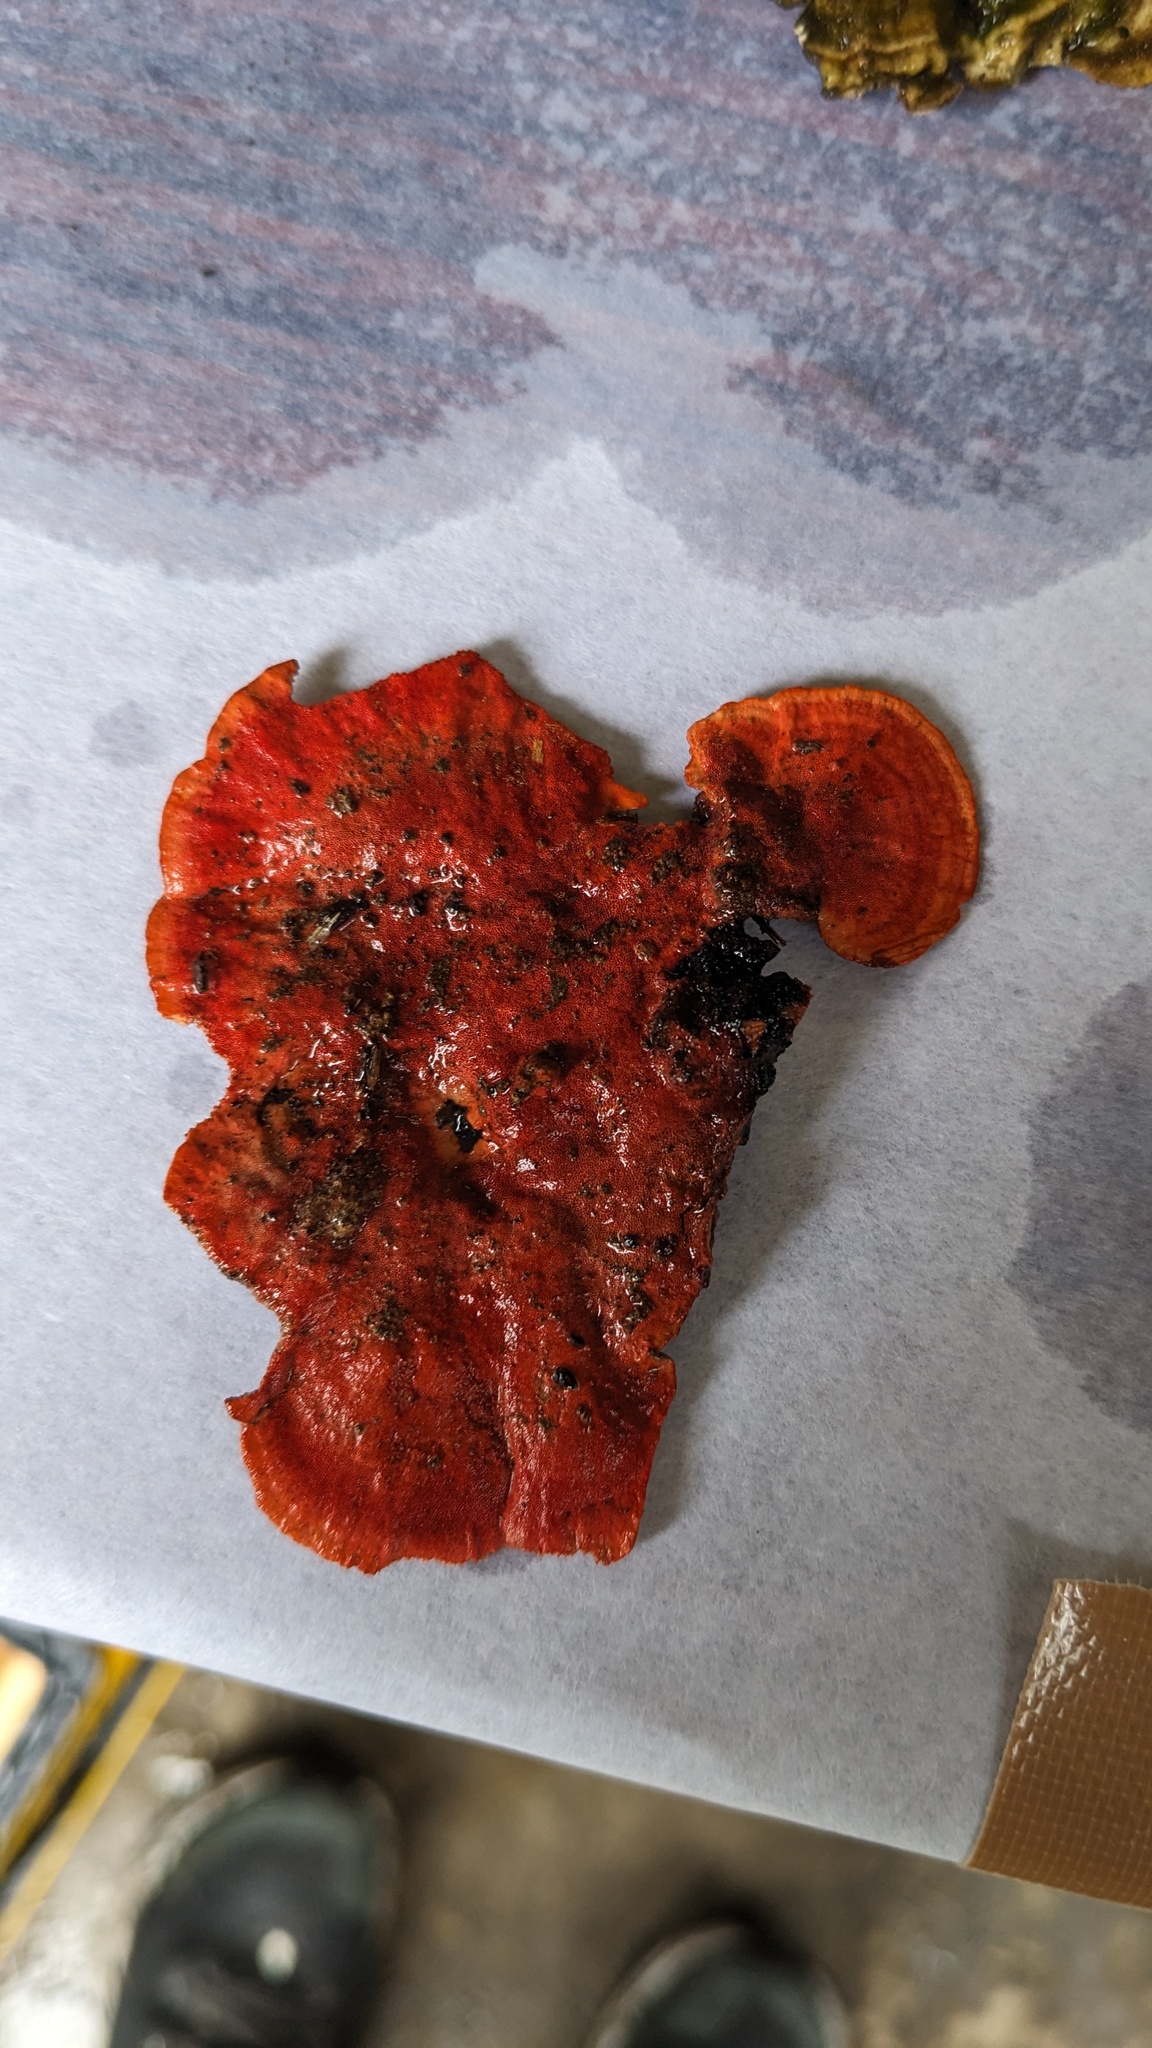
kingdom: Fungi
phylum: Basidiomycota
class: Agaricomycetes
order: Polyporales
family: Polyporaceae
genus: Trametes
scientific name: Trametes coccinea
